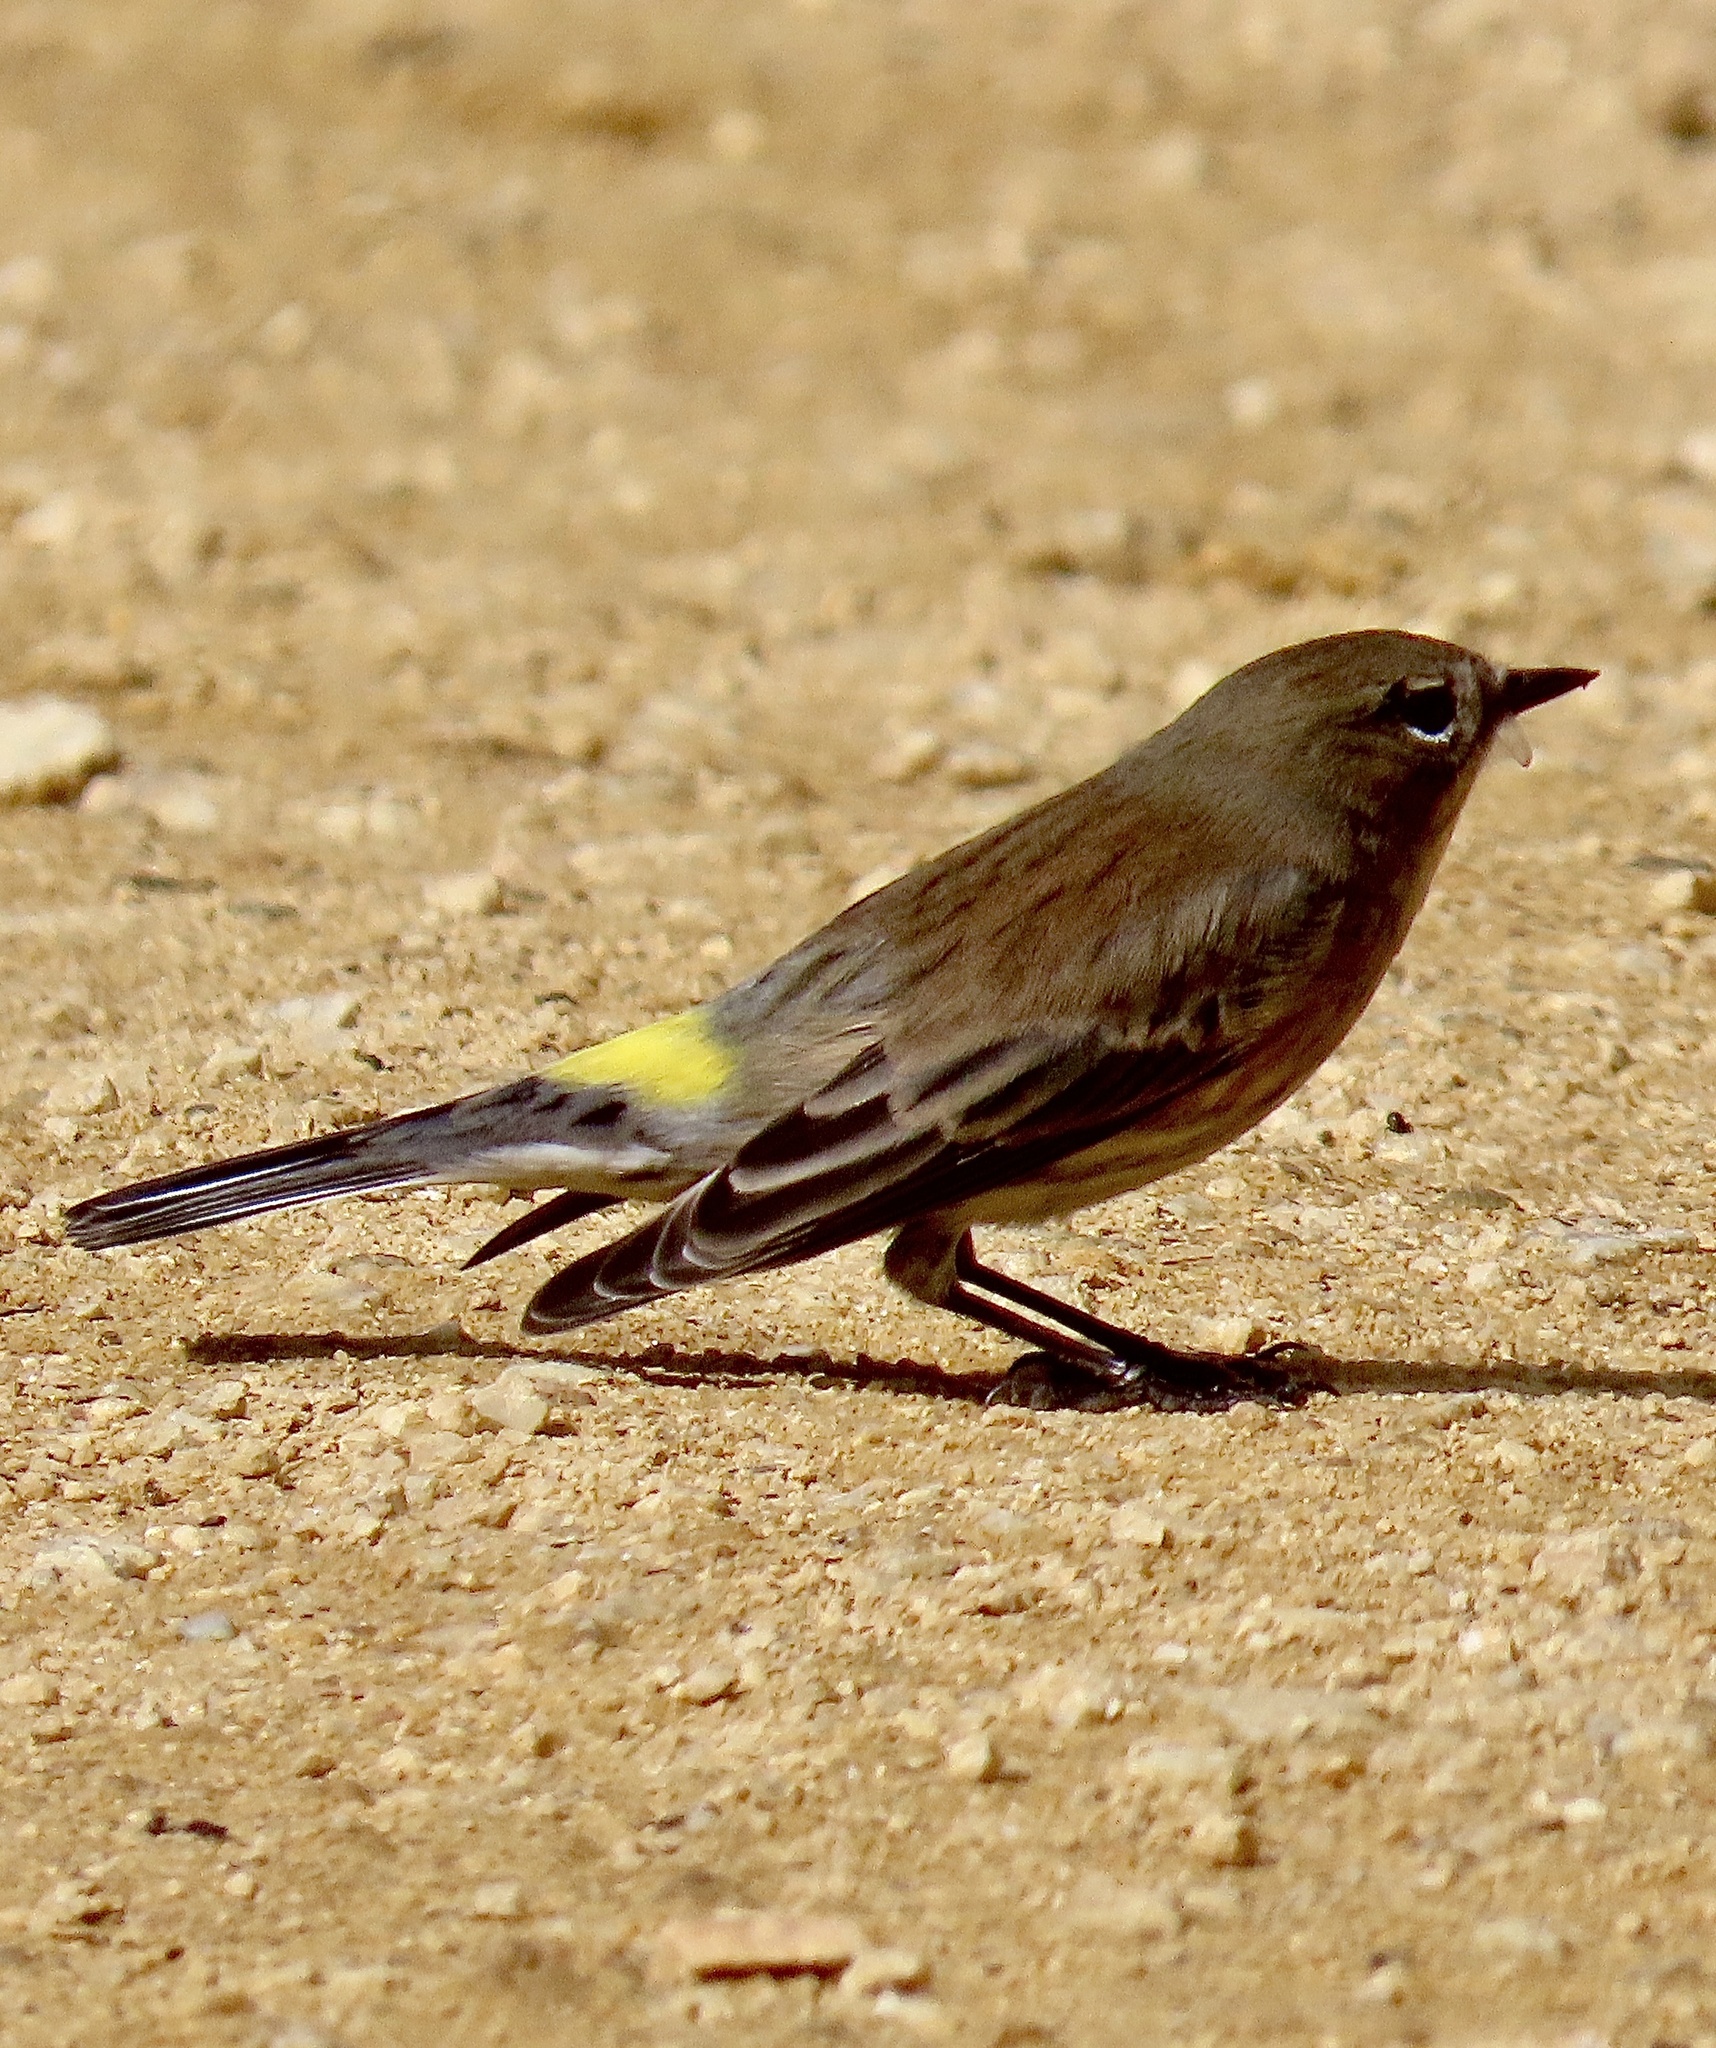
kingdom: Animalia
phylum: Chordata
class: Aves
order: Passeriformes
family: Parulidae
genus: Setophaga
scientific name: Setophaga coronata
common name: Myrtle warbler
